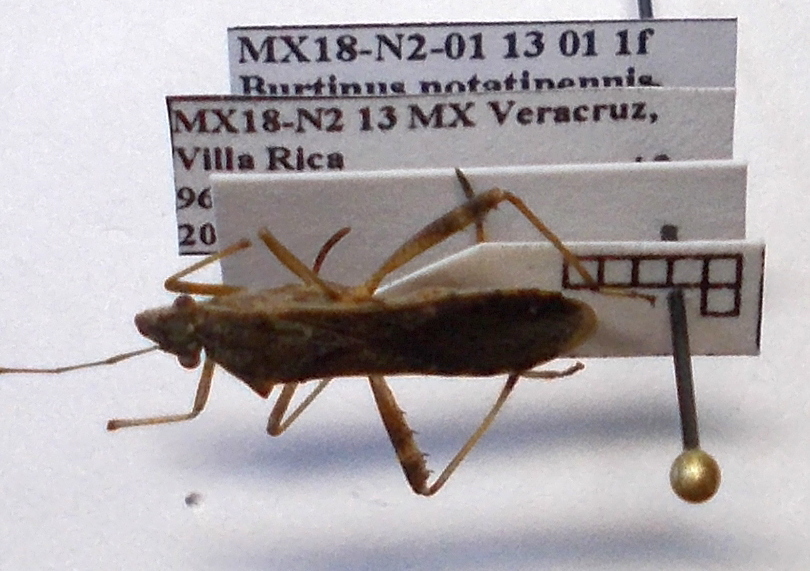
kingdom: Animalia
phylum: Arthropoda
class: Insecta
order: Hemiptera
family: Alydidae
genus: Burtinus
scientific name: Burtinus notatipennis
